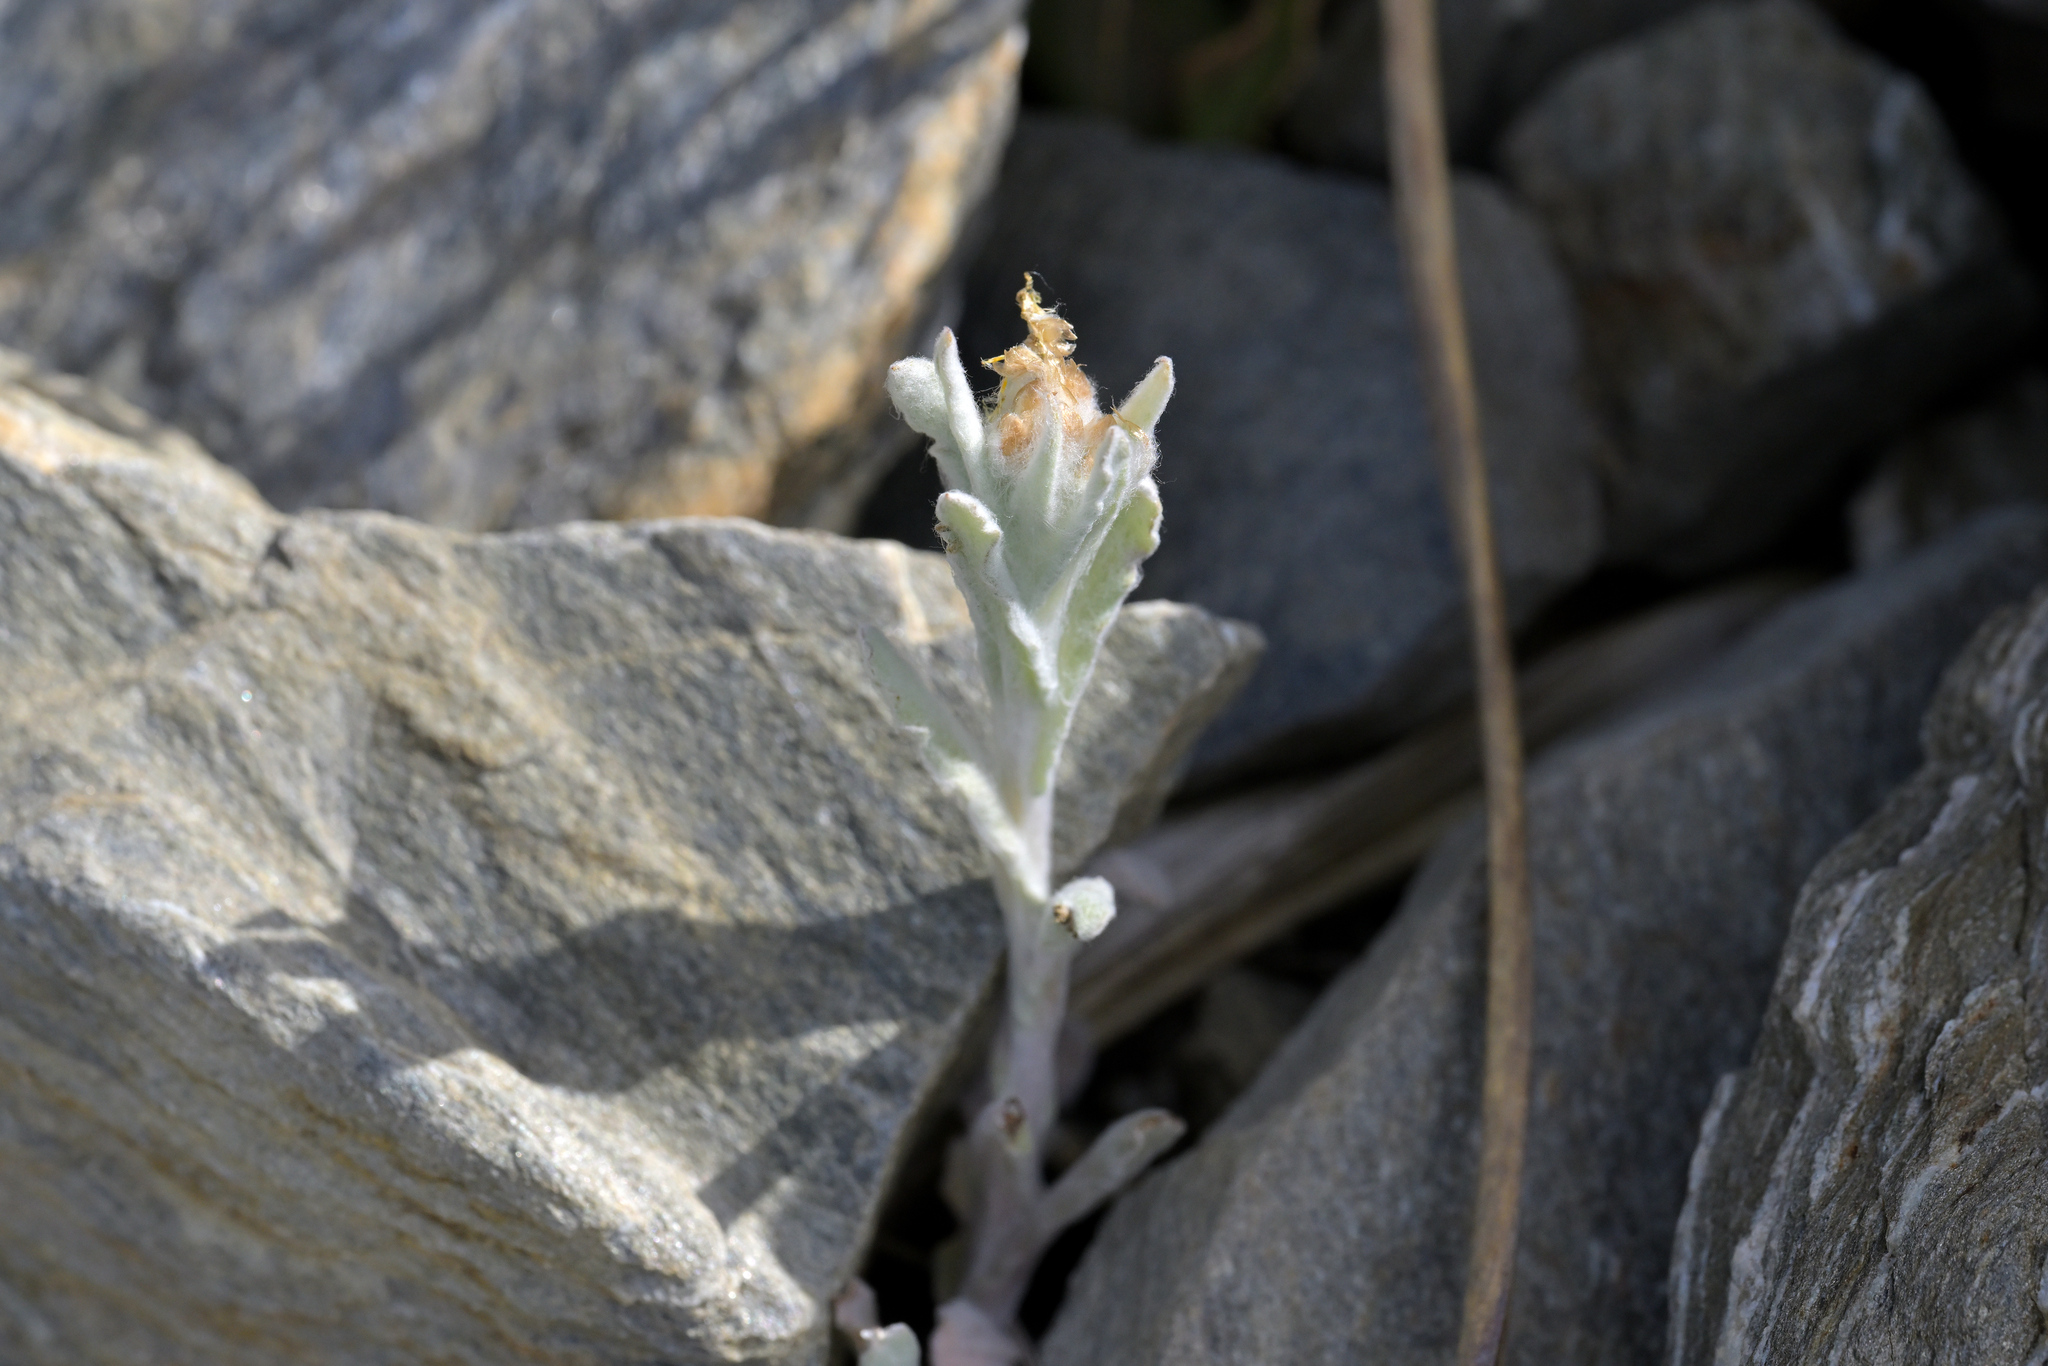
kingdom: Plantae
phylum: Tracheophyta
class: Magnoliopsida
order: Asterales
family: Asteraceae
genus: Pseudognaphalium
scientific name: Pseudognaphalium
